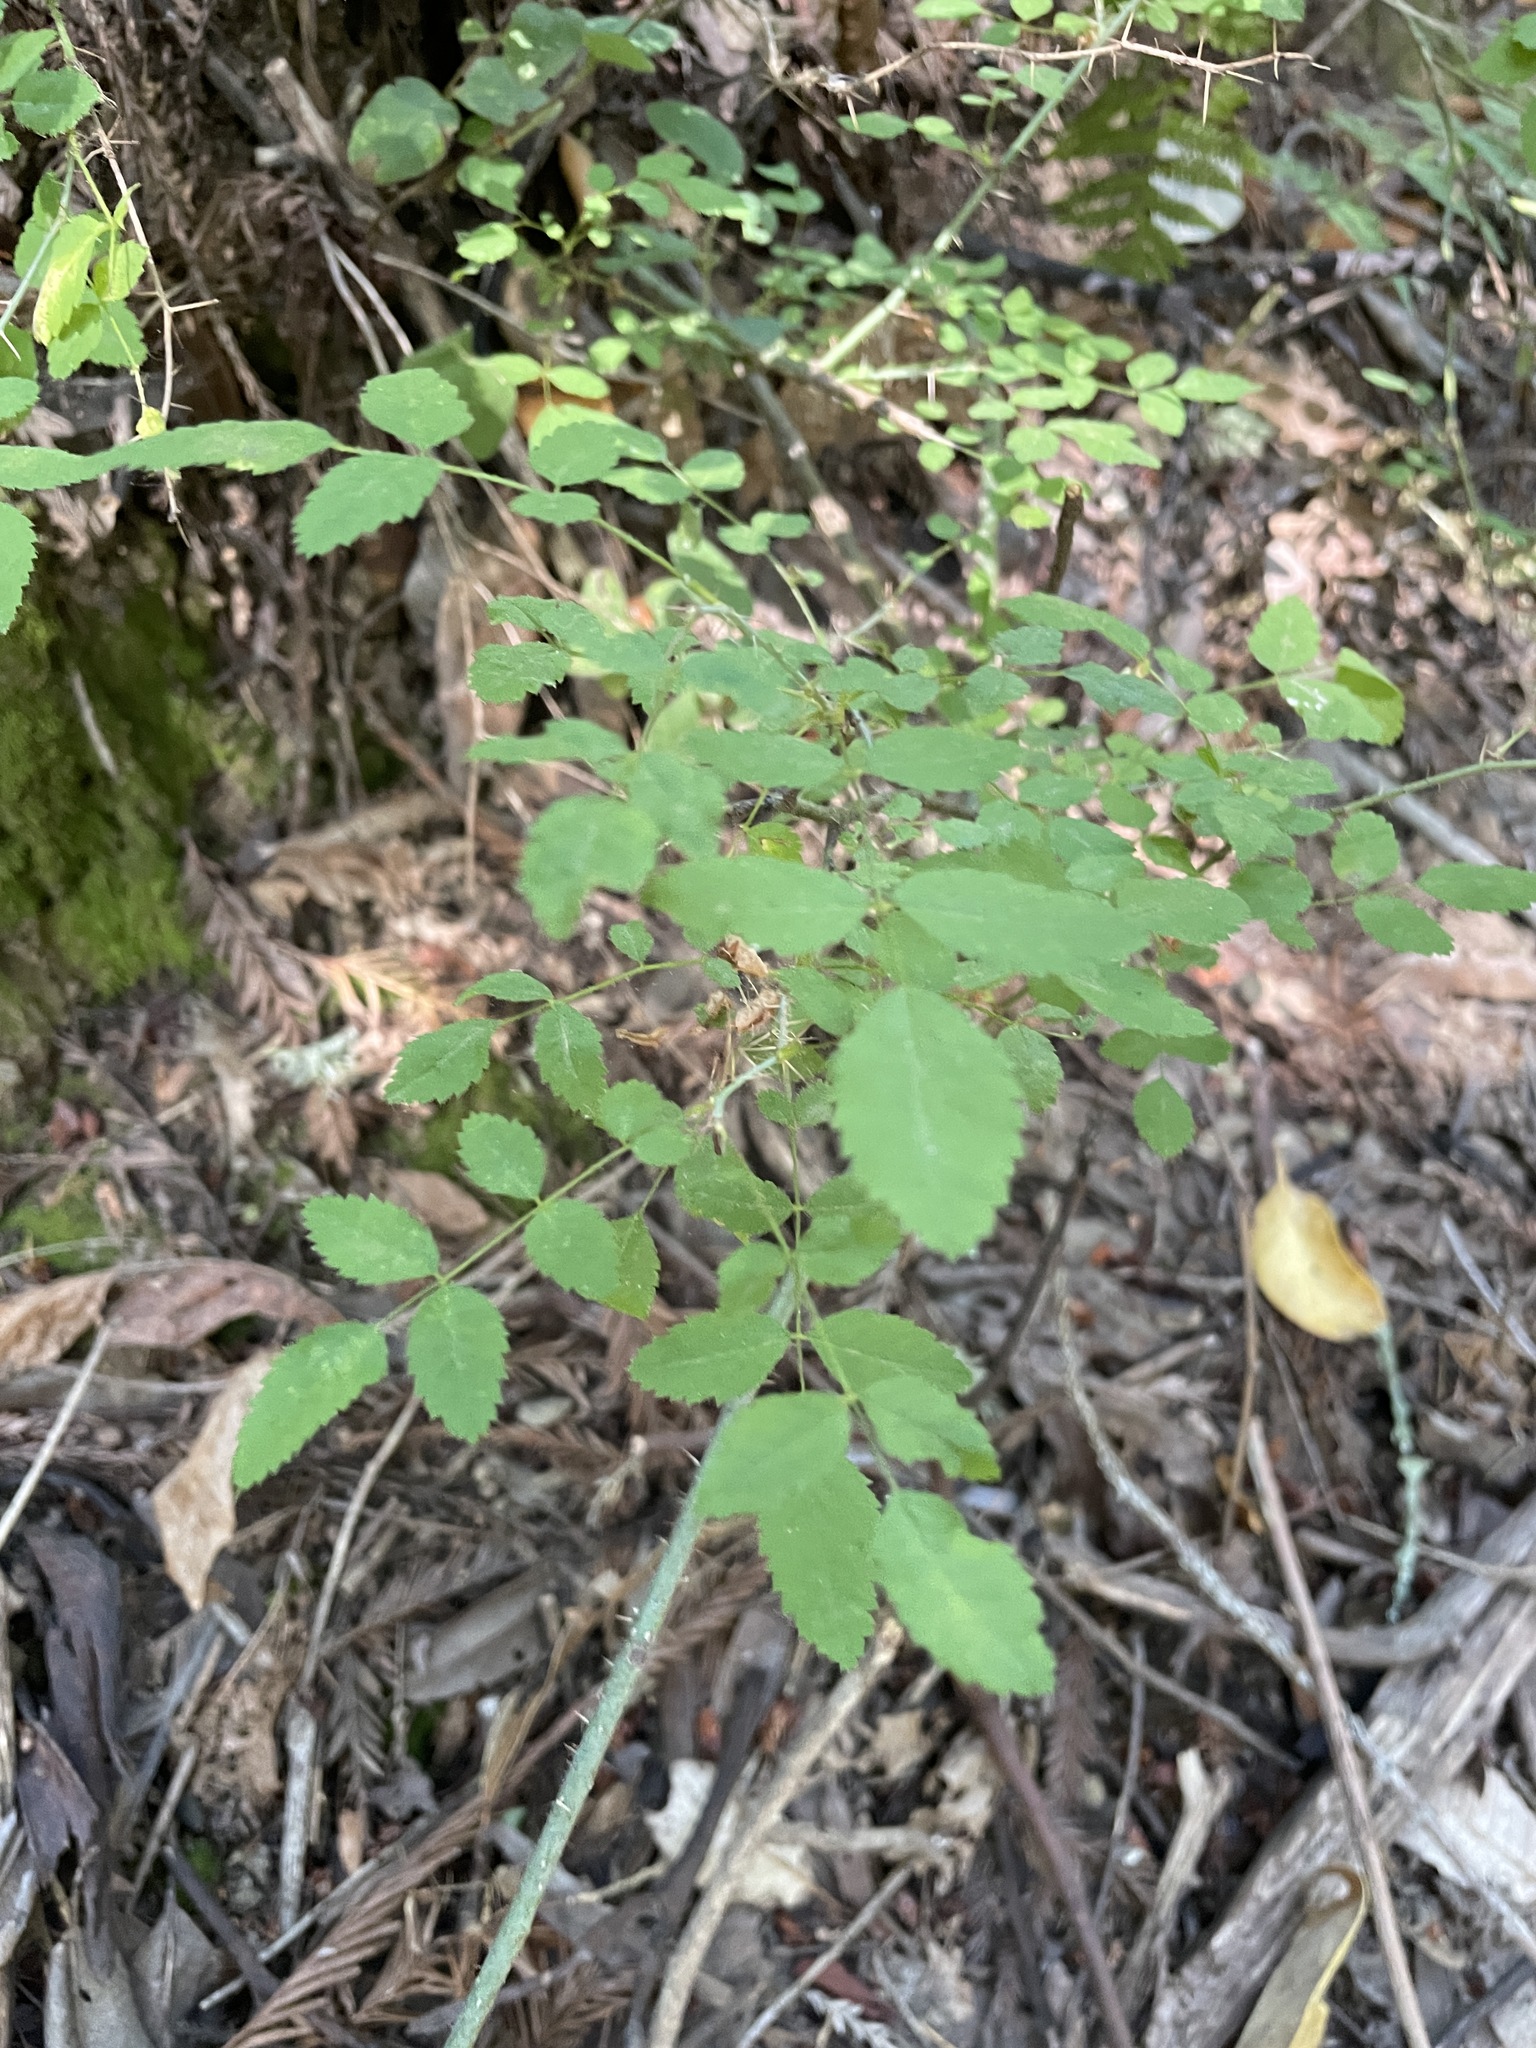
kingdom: Plantae
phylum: Tracheophyta
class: Magnoliopsida
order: Rosales
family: Rosaceae
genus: Rosa
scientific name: Rosa gymnocarpa
